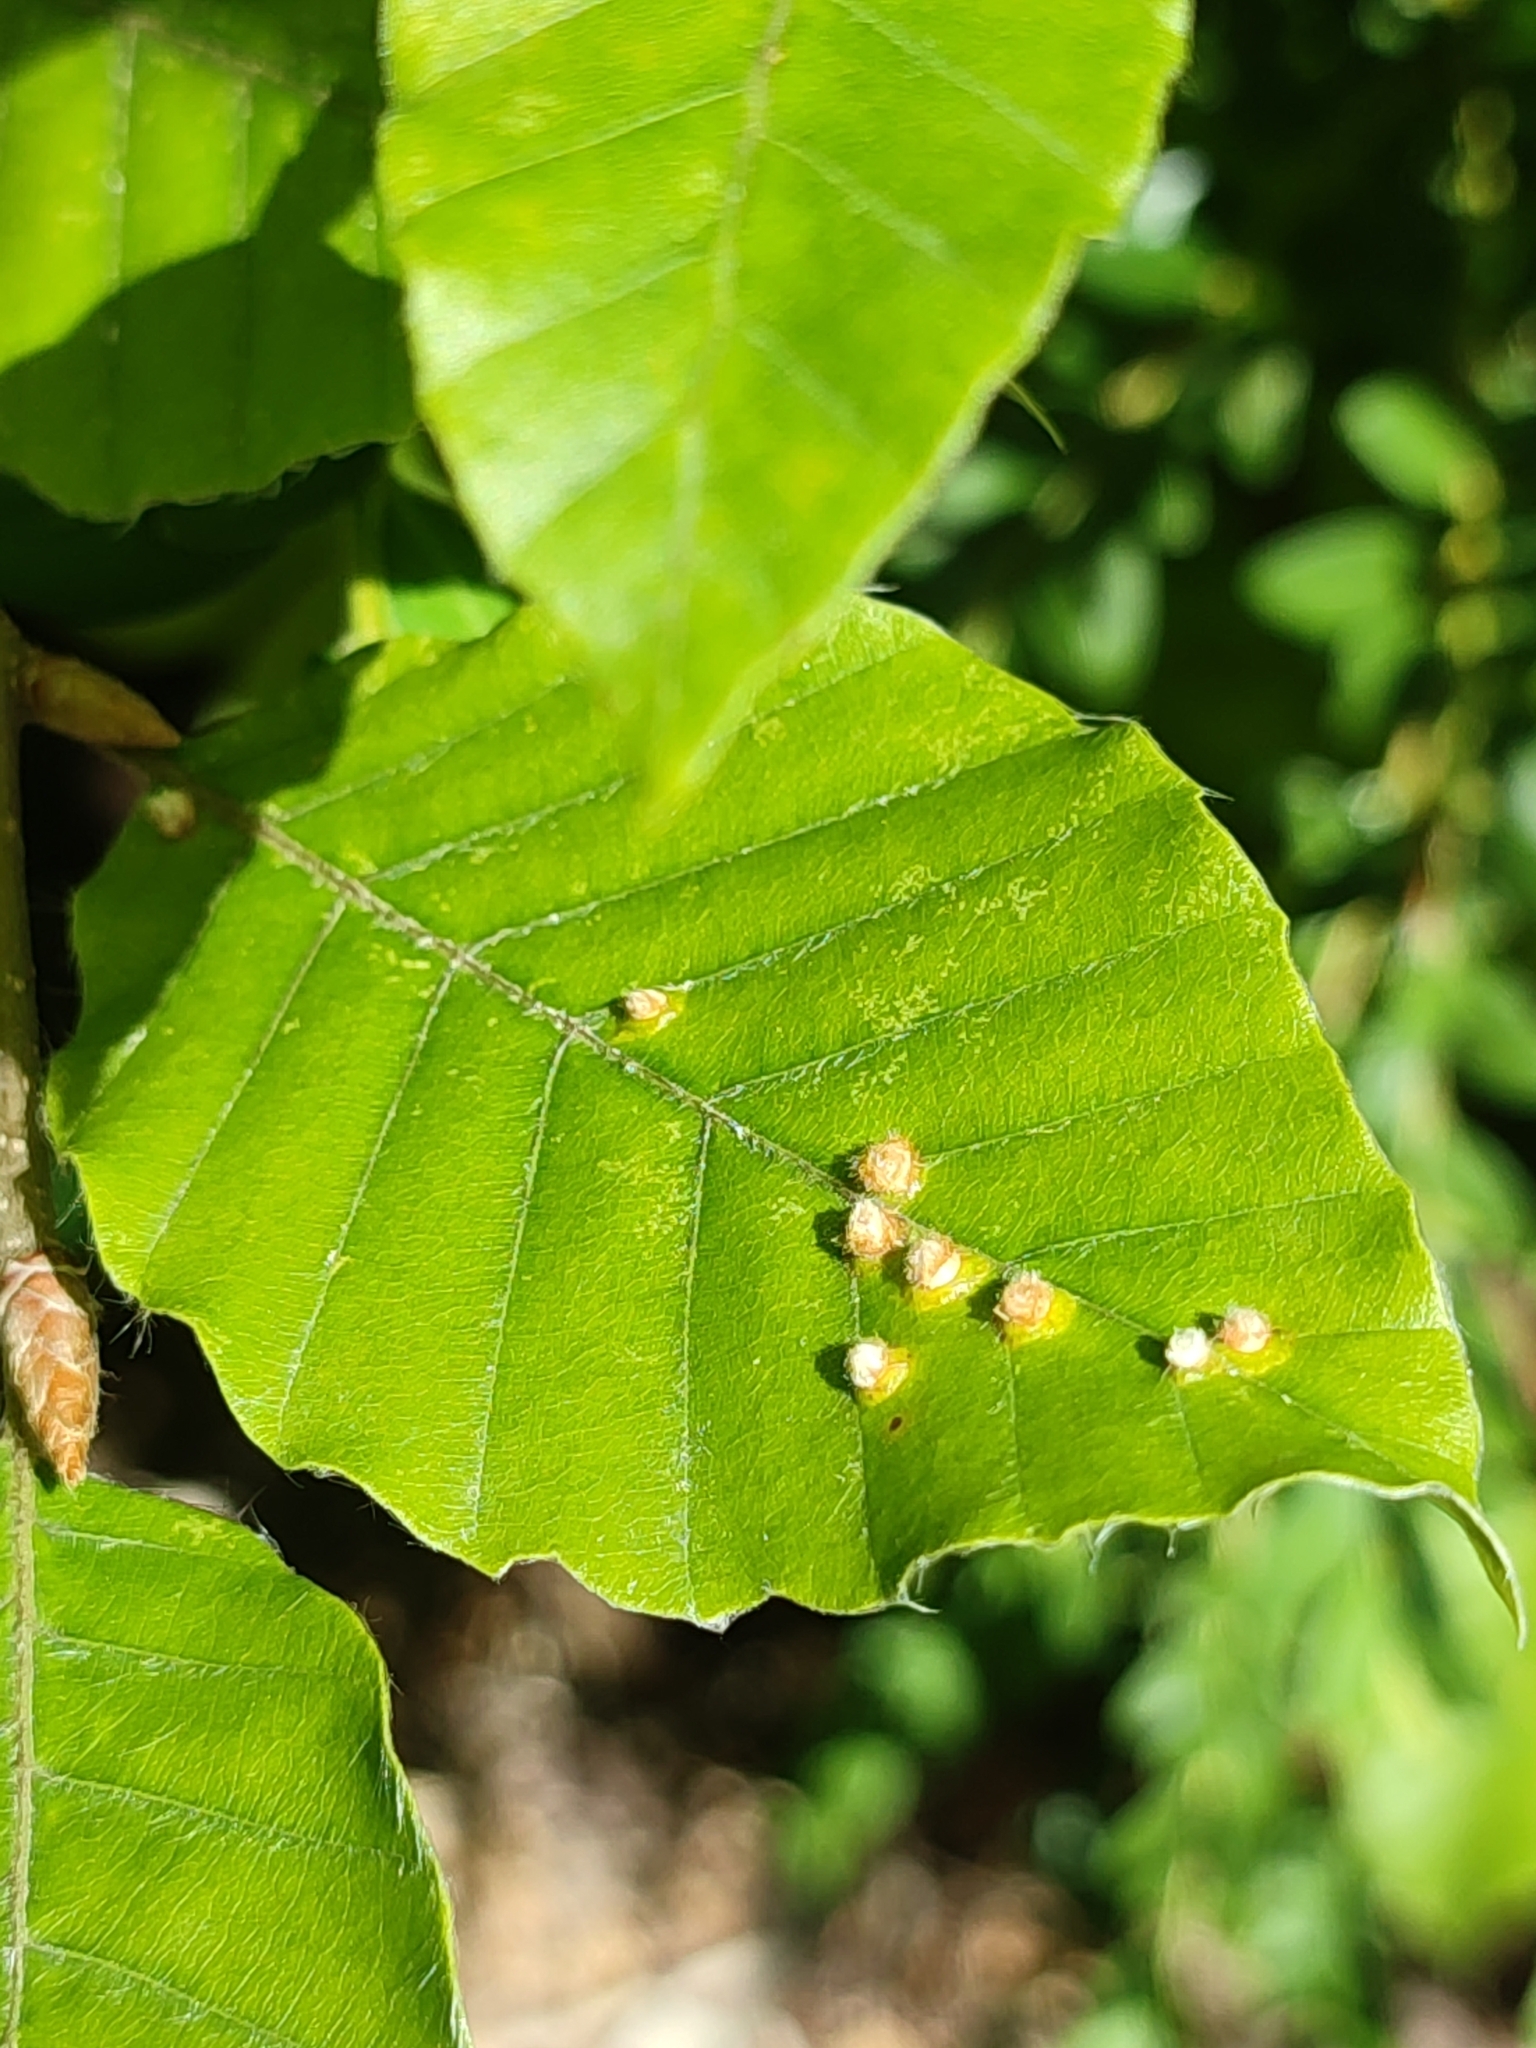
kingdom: Animalia
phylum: Arthropoda
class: Insecta
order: Diptera
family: Cecidomyiidae
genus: Hartigiola
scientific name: Hartigiola annulipes
